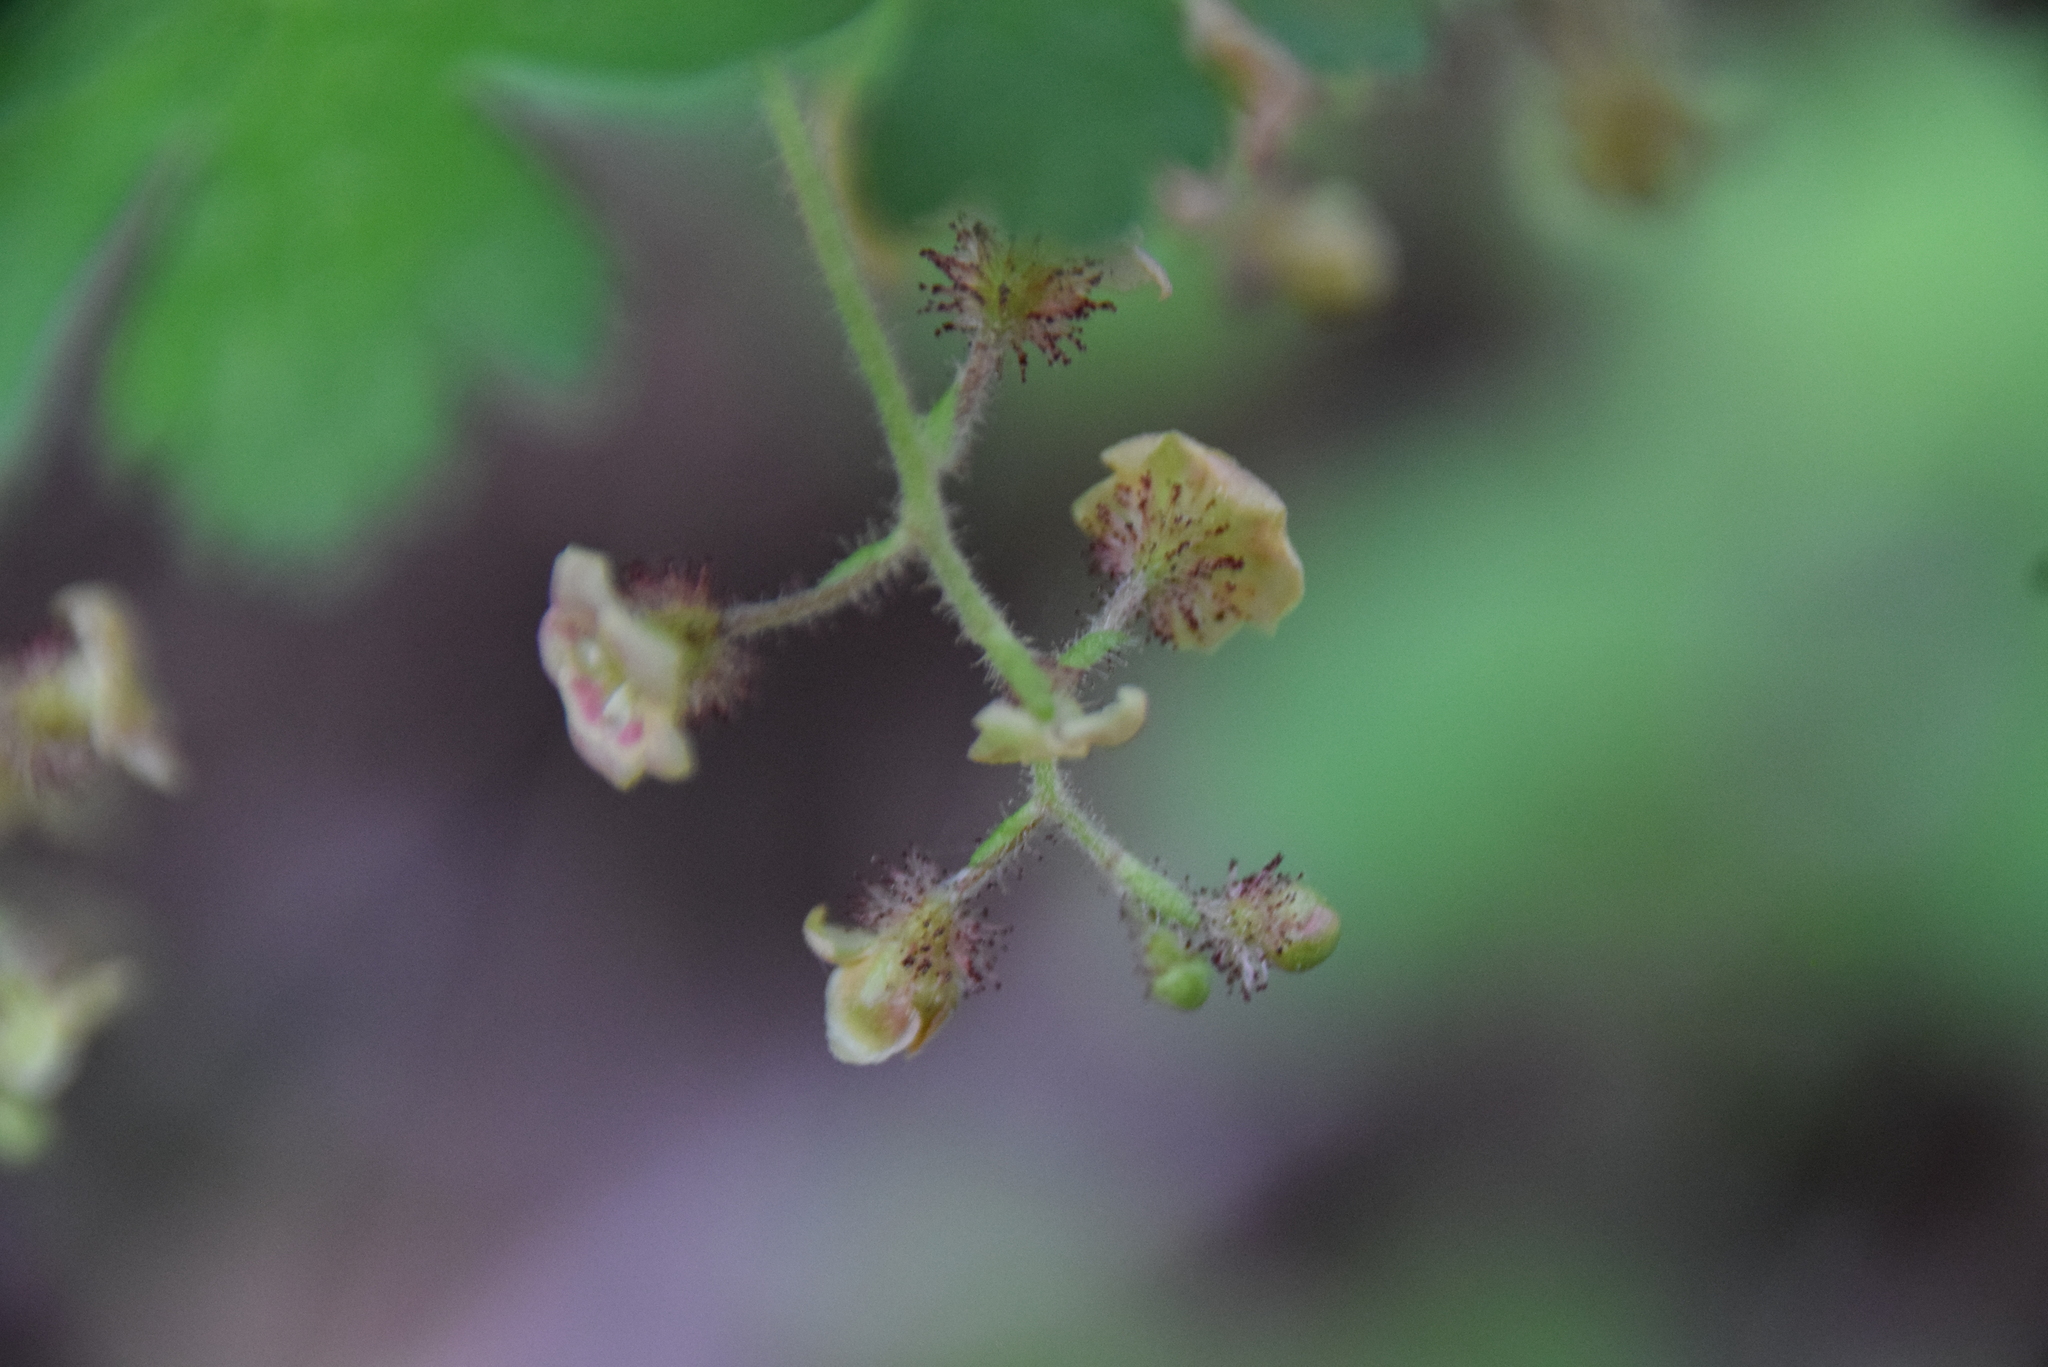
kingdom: Plantae
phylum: Tracheophyta
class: Magnoliopsida
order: Saxifragales
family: Grossulariaceae
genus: Ribes
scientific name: Ribes lacustre
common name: Black gooseberry
